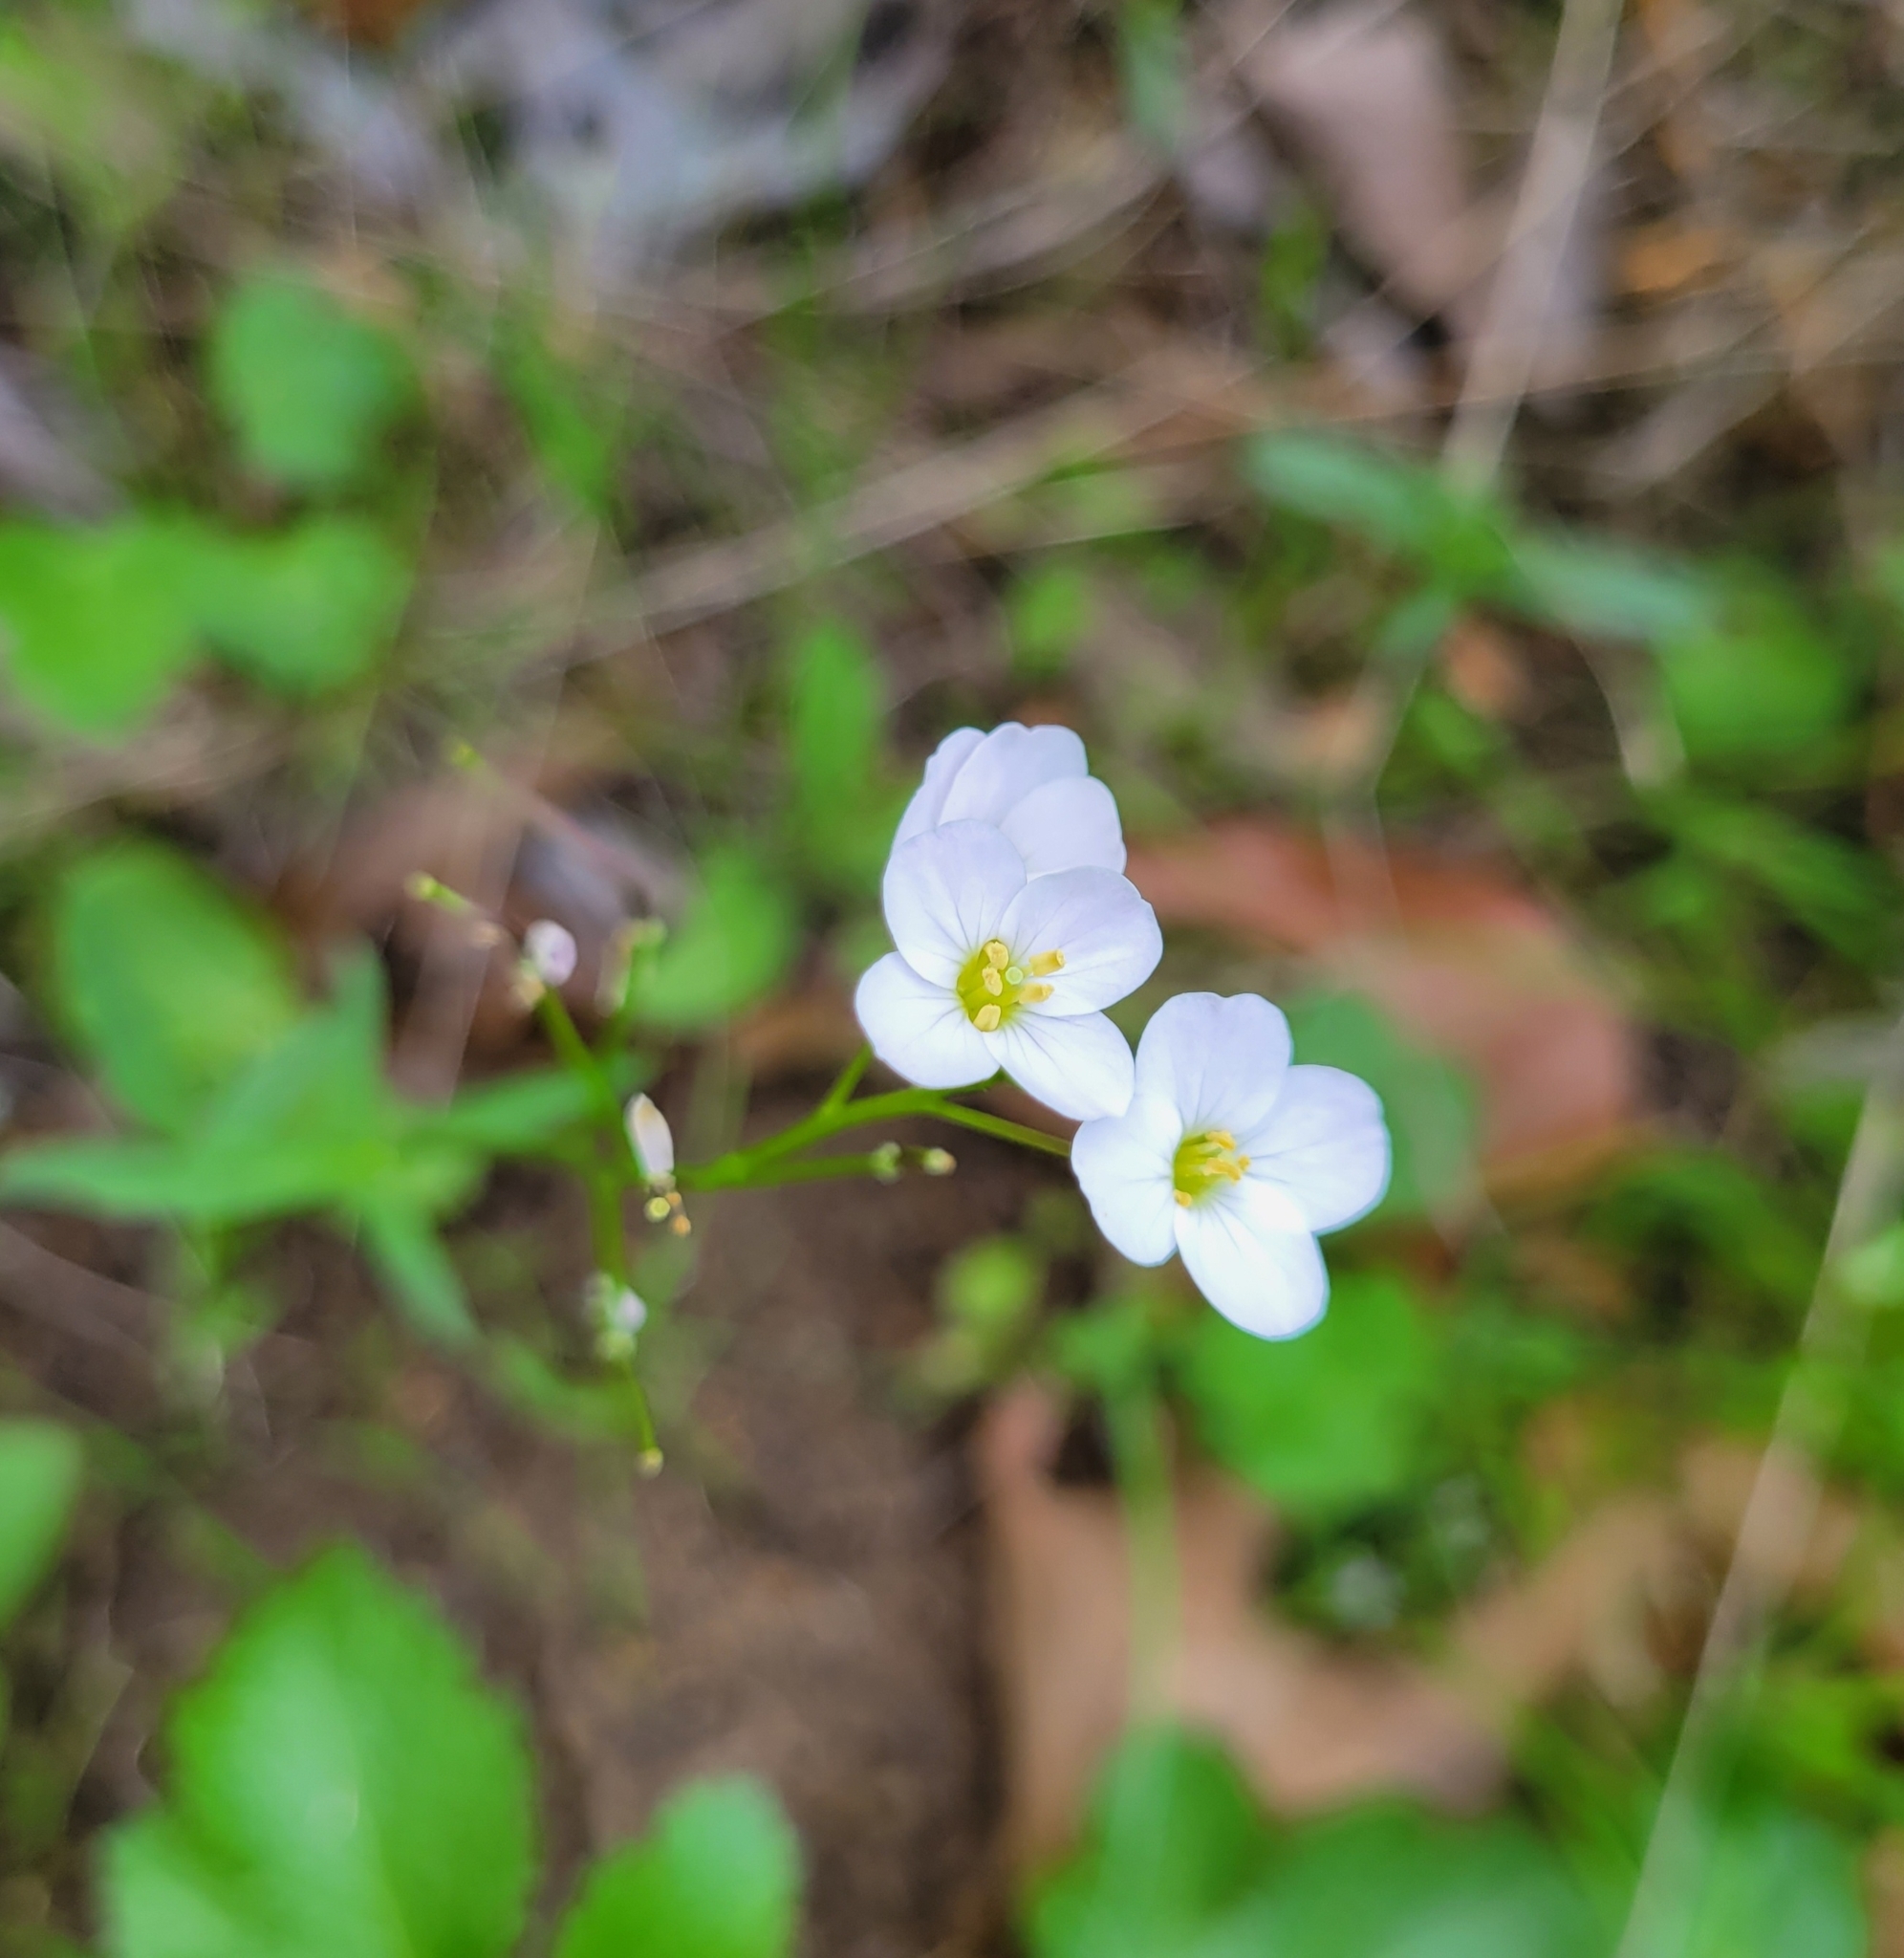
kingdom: Plantae
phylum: Tracheophyta
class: Magnoliopsida
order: Brassicales
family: Brassicaceae
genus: Cardamine
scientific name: Cardamine californica
